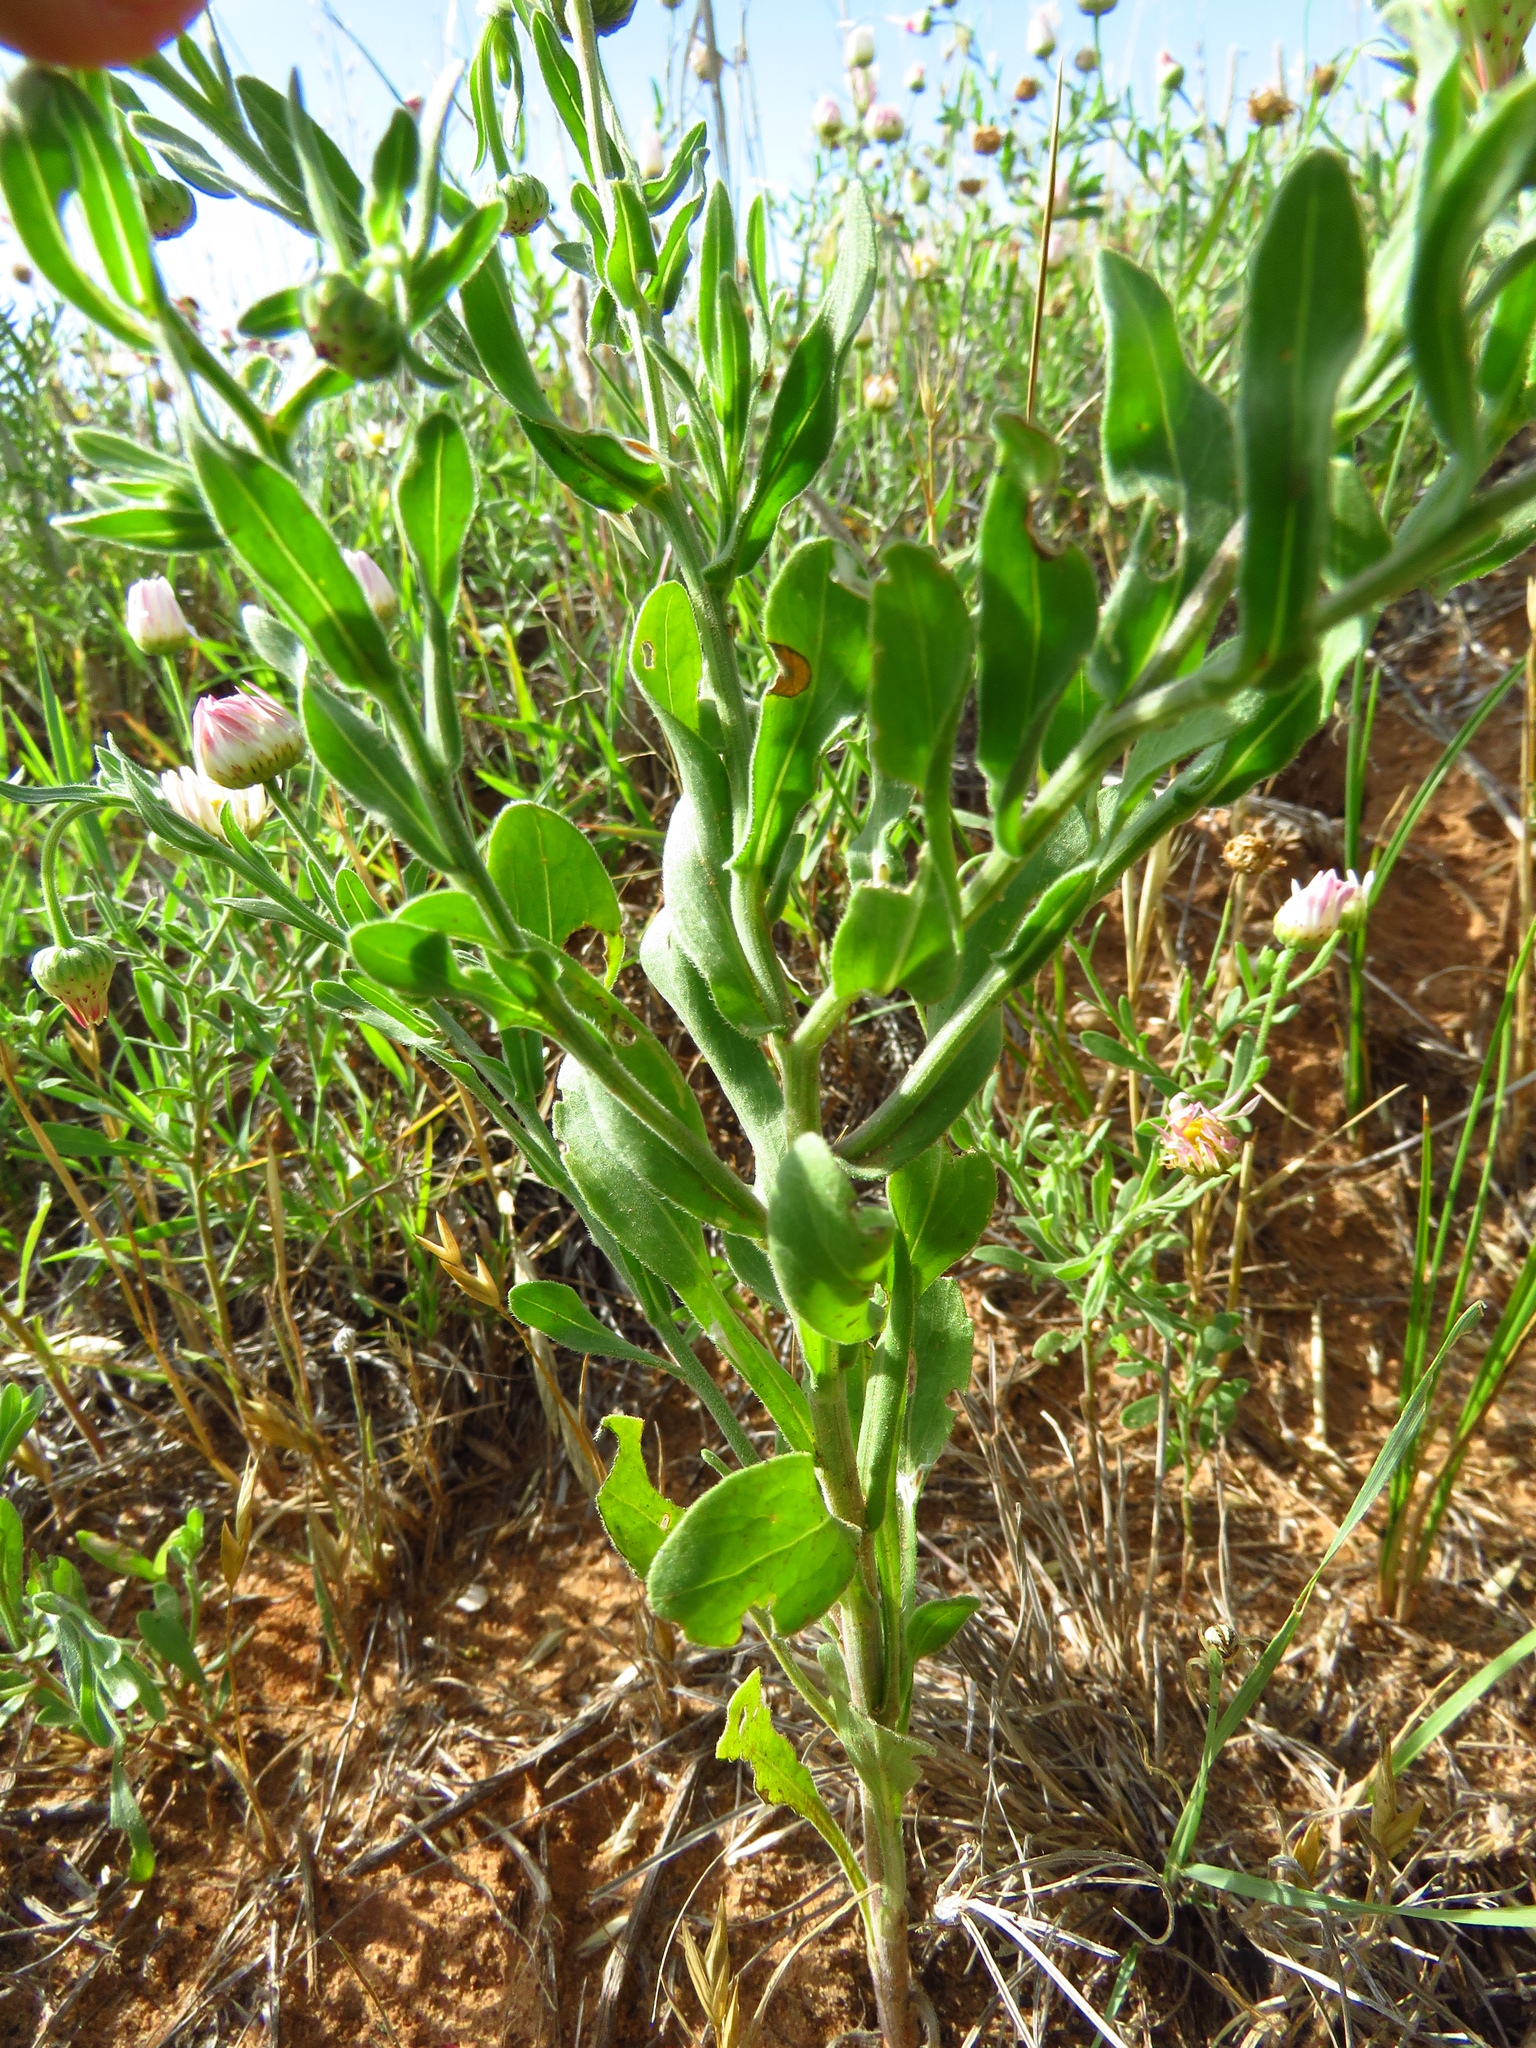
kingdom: Plantae
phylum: Tracheophyta
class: Magnoliopsida
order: Asterales
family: Asteraceae
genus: Aphanostephus
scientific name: Aphanostephus skirrhobasis
